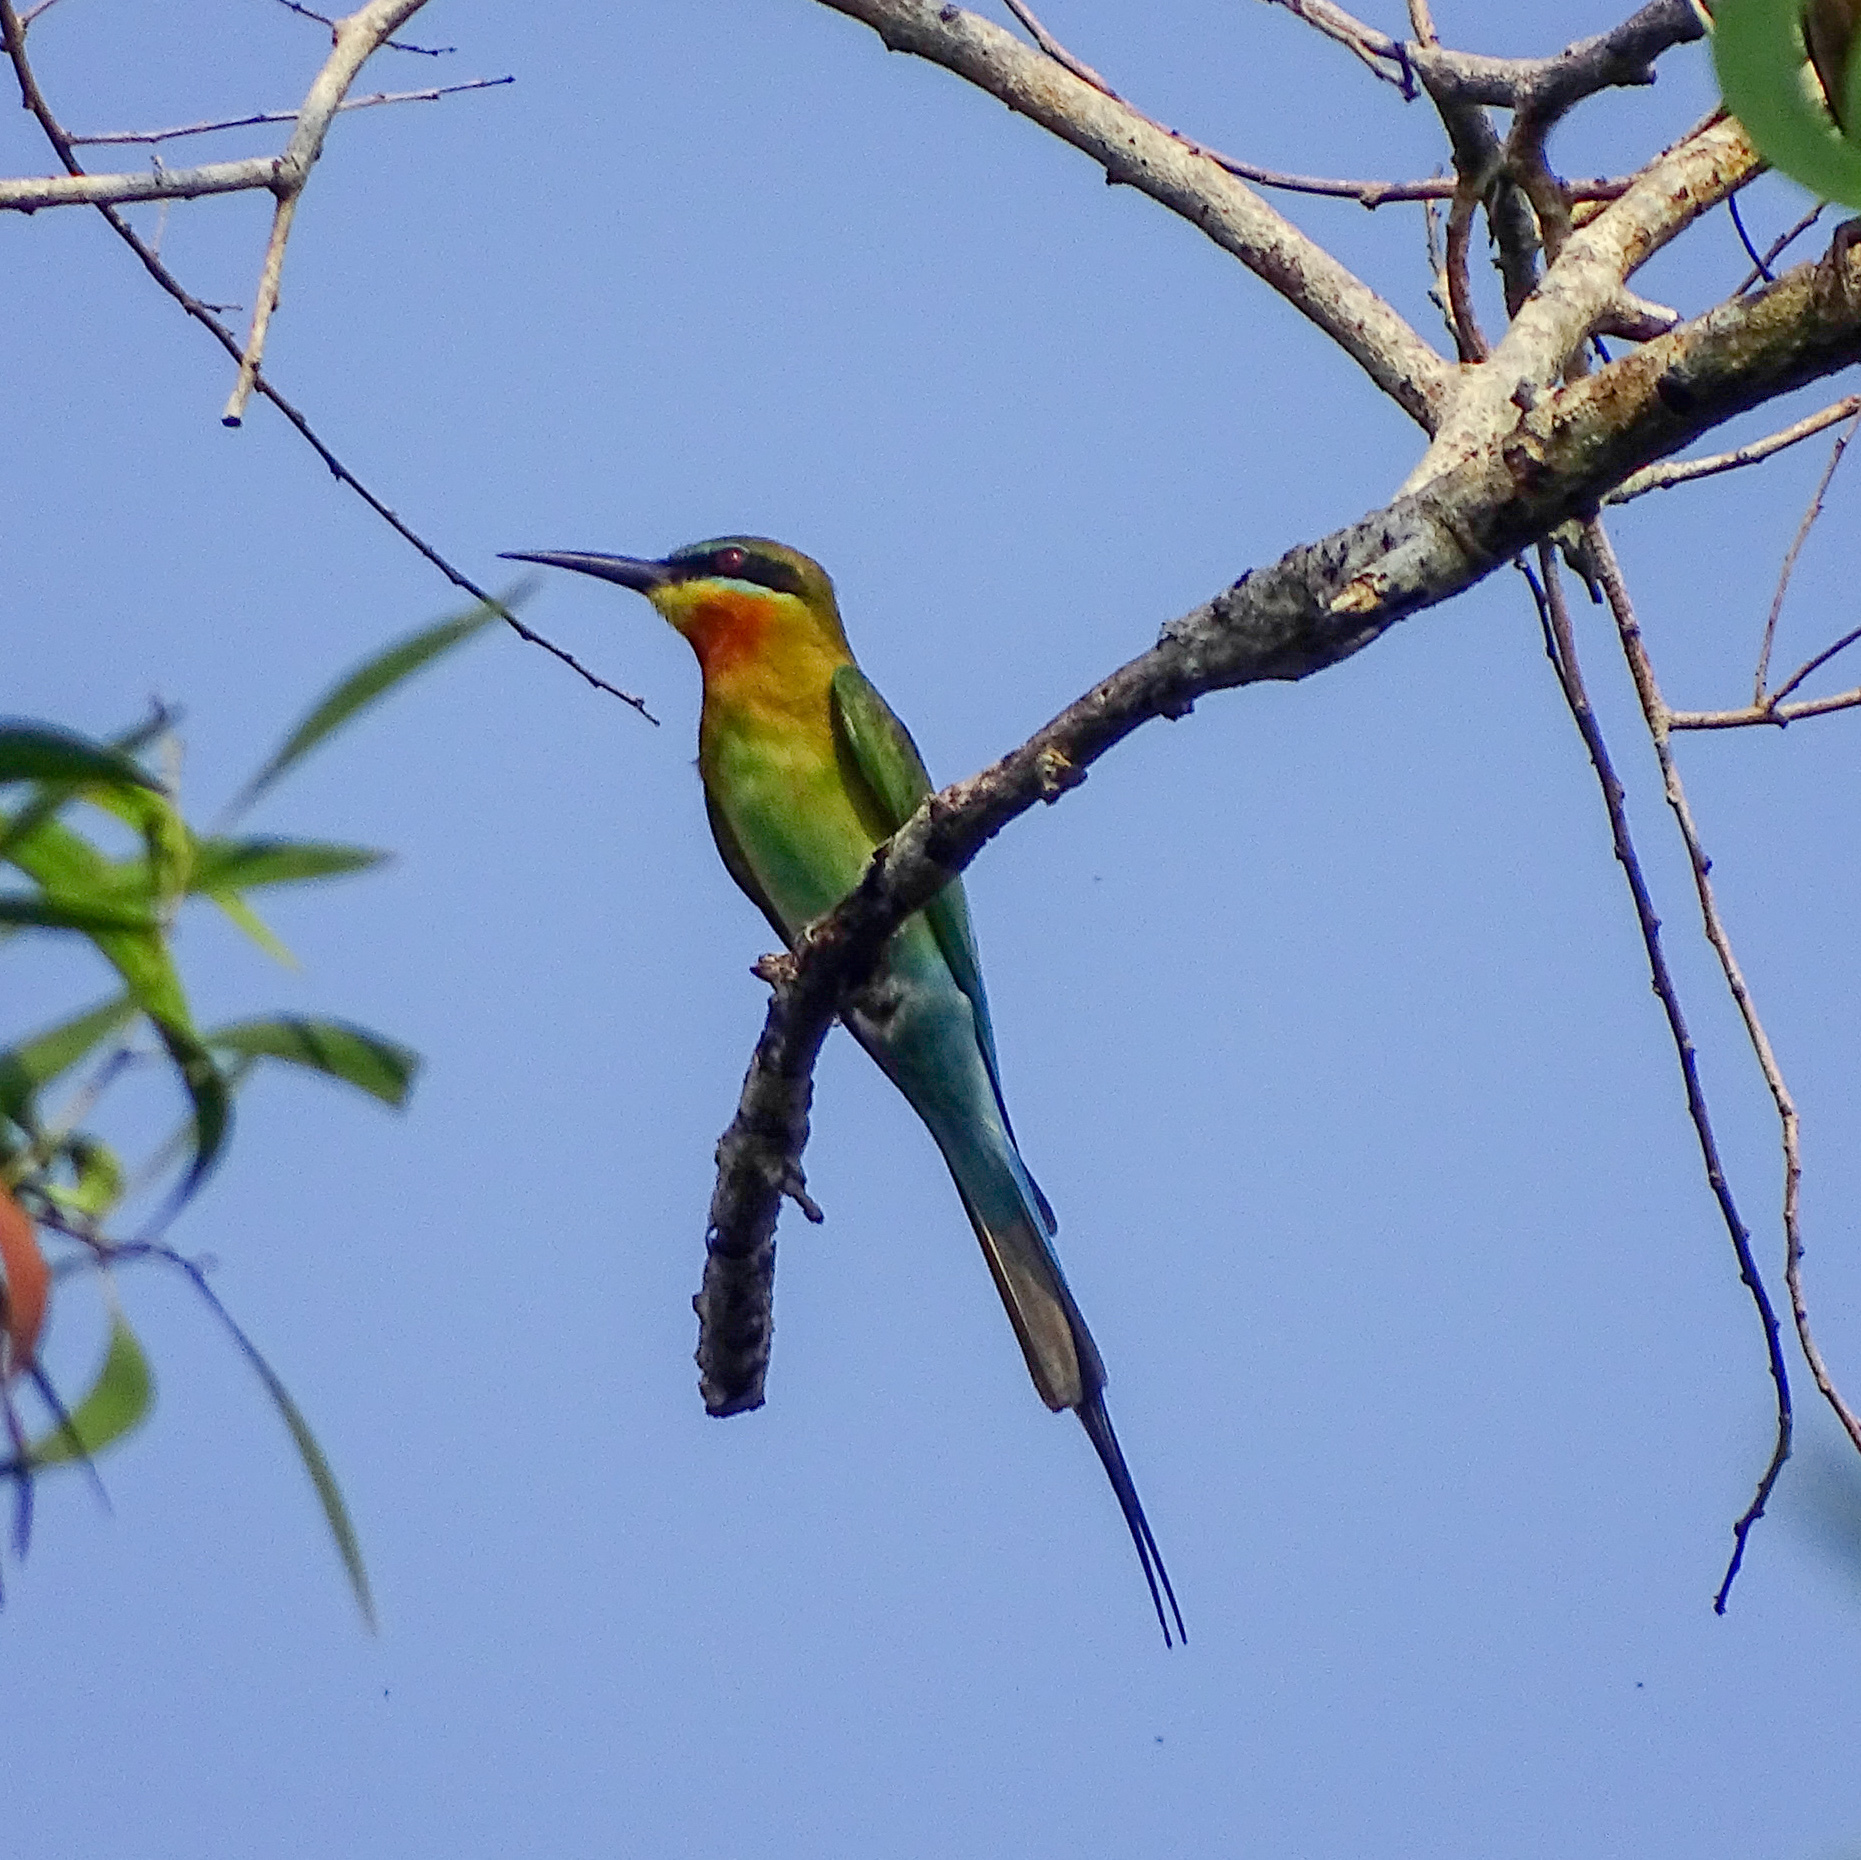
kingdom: Animalia
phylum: Chordata
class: Aves
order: Coraciiformes
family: Meropidae
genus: Merops
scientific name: Merops philippinus
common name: Blue-tailed bee-eater
